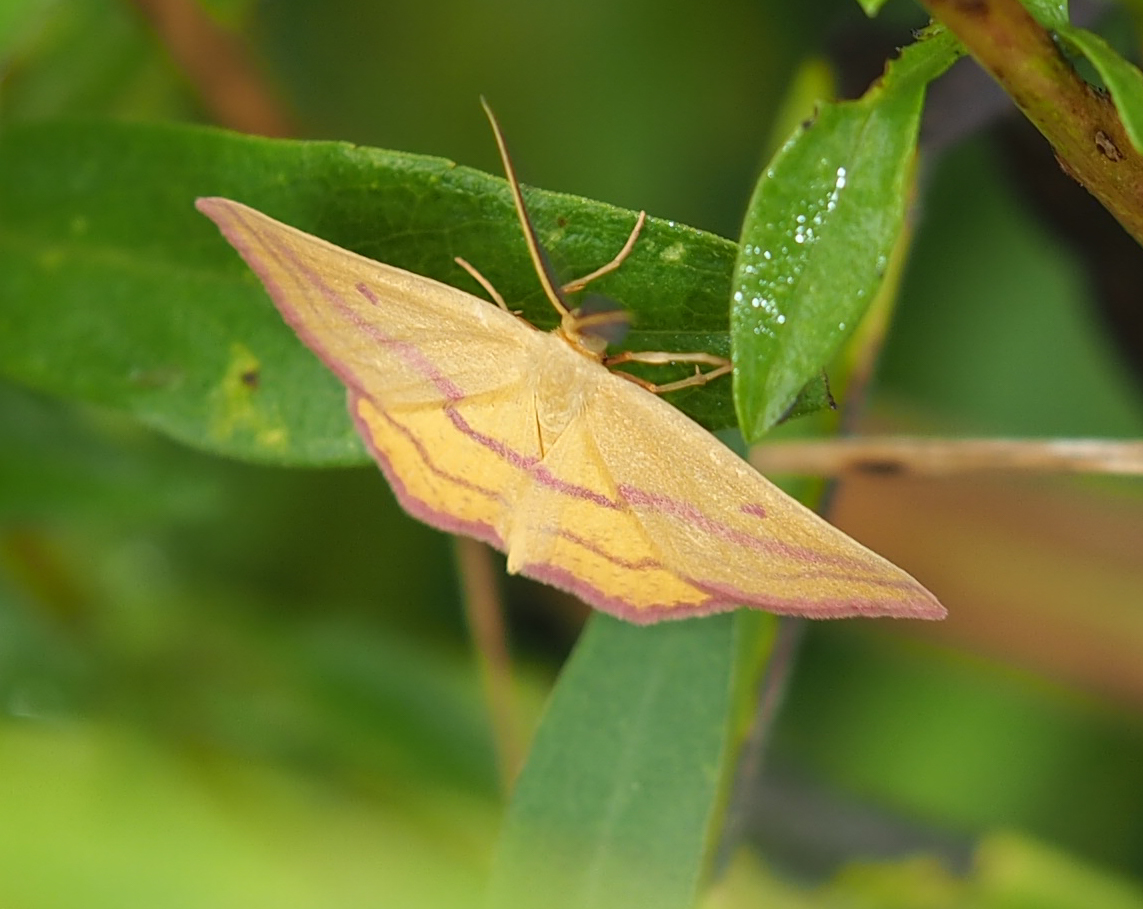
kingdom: Animalia
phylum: Arthropoda
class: Insecta
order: Lepidoptera
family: Geometridae
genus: Haematopis
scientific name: Haematopis grataria
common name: Chickweed geometer
